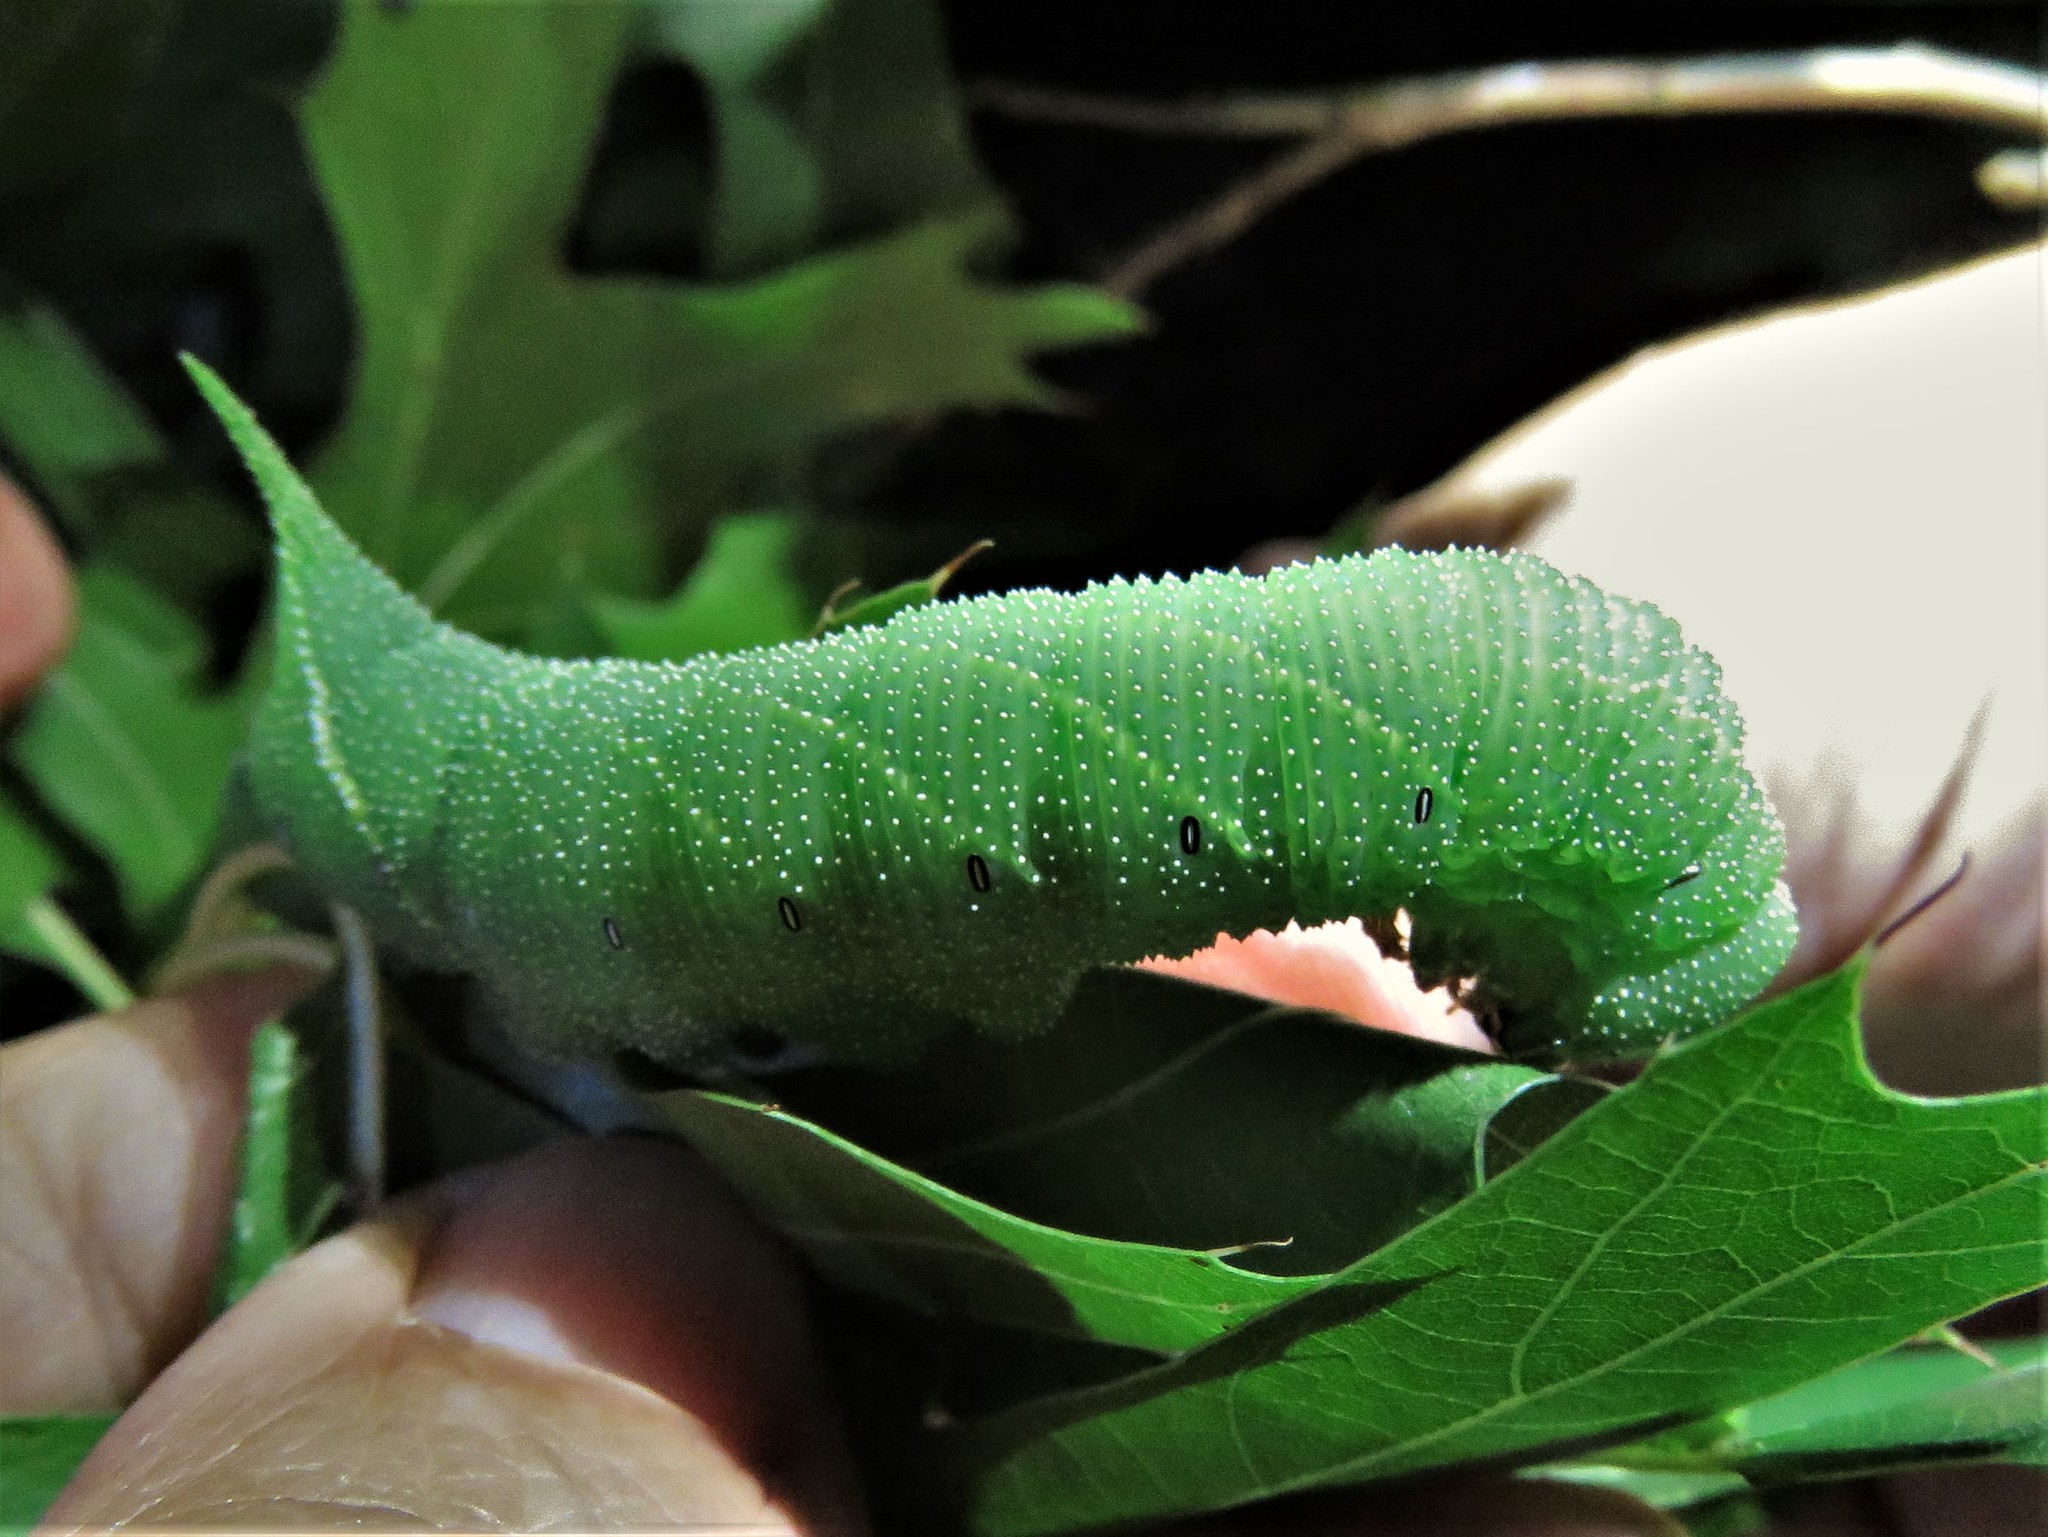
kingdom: Animalia
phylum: Arthropoda
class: Insecta
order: Lepidoptera
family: Sphingidae
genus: Paonias
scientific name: Paonias excaecata
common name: Blind-eyed sphinx
